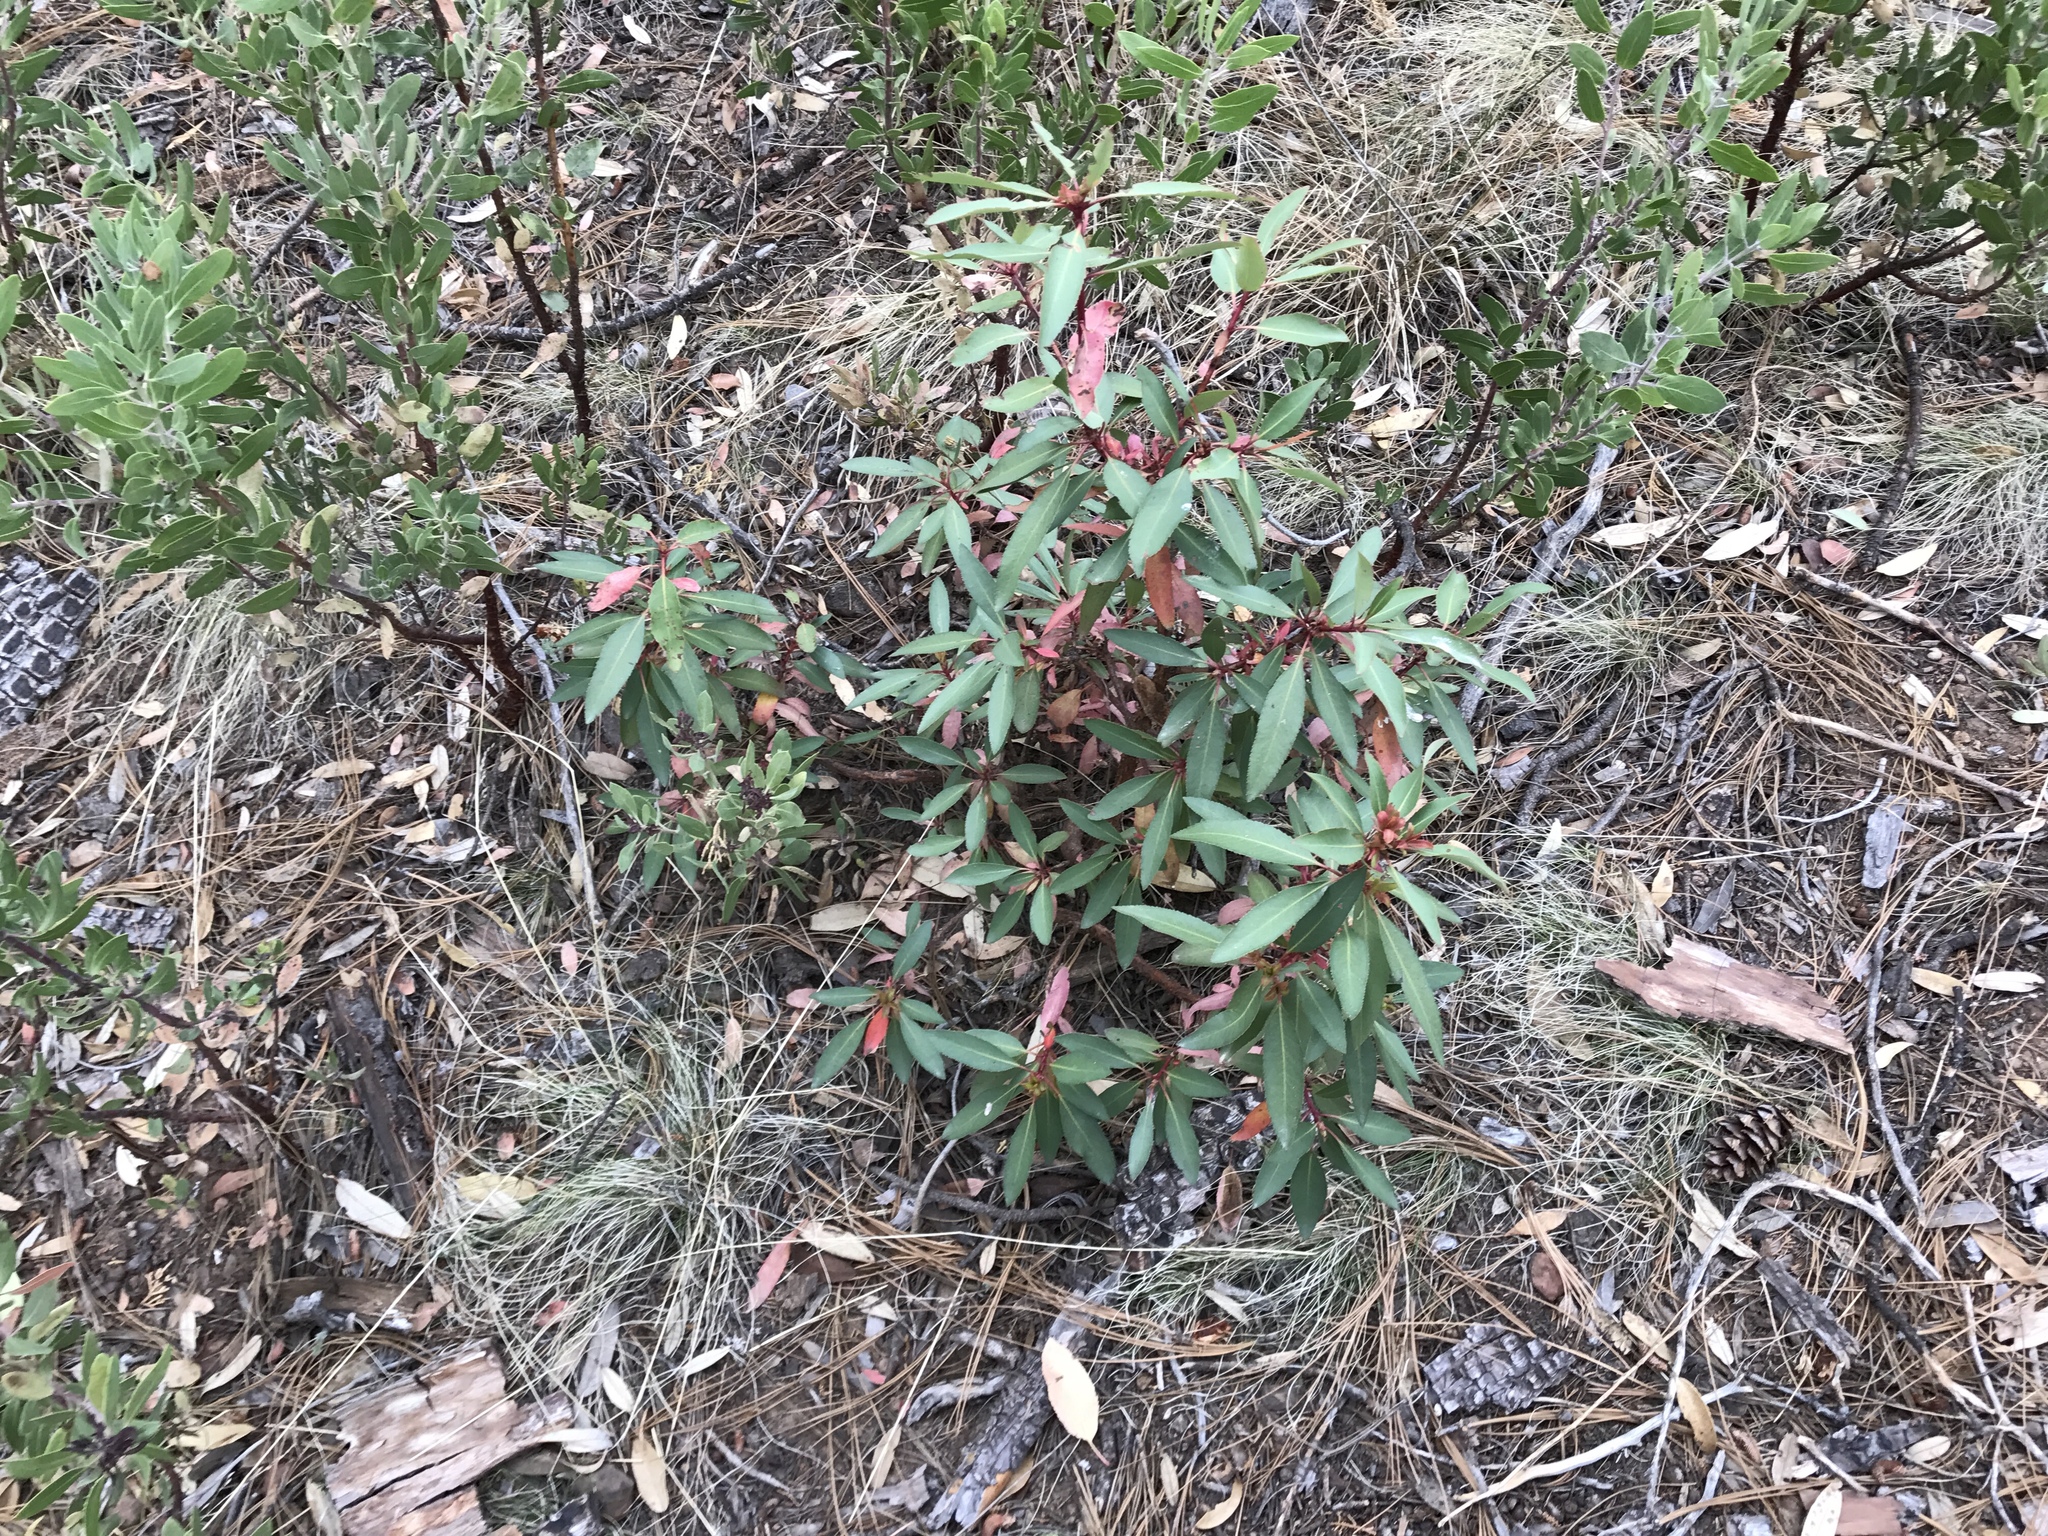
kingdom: Plantae
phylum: Tracheophyta
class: Magnoliopsida
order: Ericales
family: Ericaceae
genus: Arbutus
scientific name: Arbutus arizonica
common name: Arizona madrone
